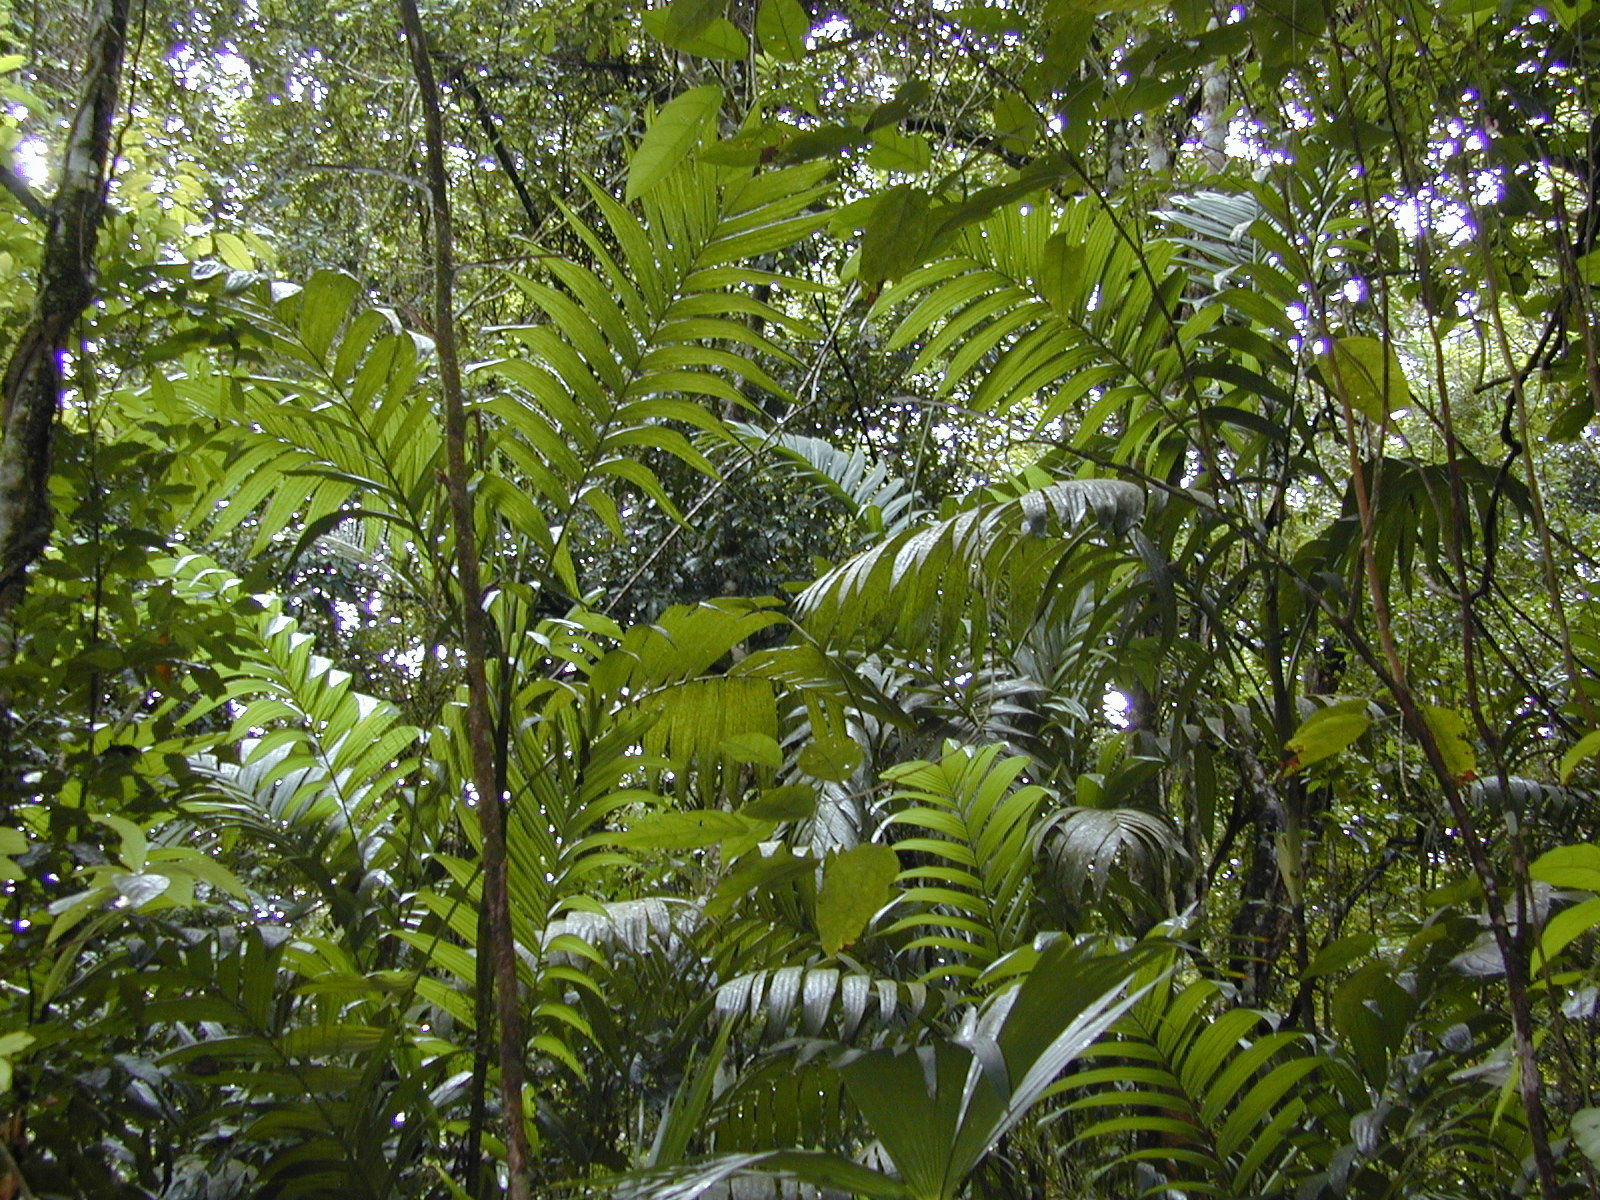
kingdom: Plantae
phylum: Tracheophyta
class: Liliopsida
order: Arecales
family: Arecaceae
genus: Areca
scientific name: Areca triandra
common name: Australian areca palm
